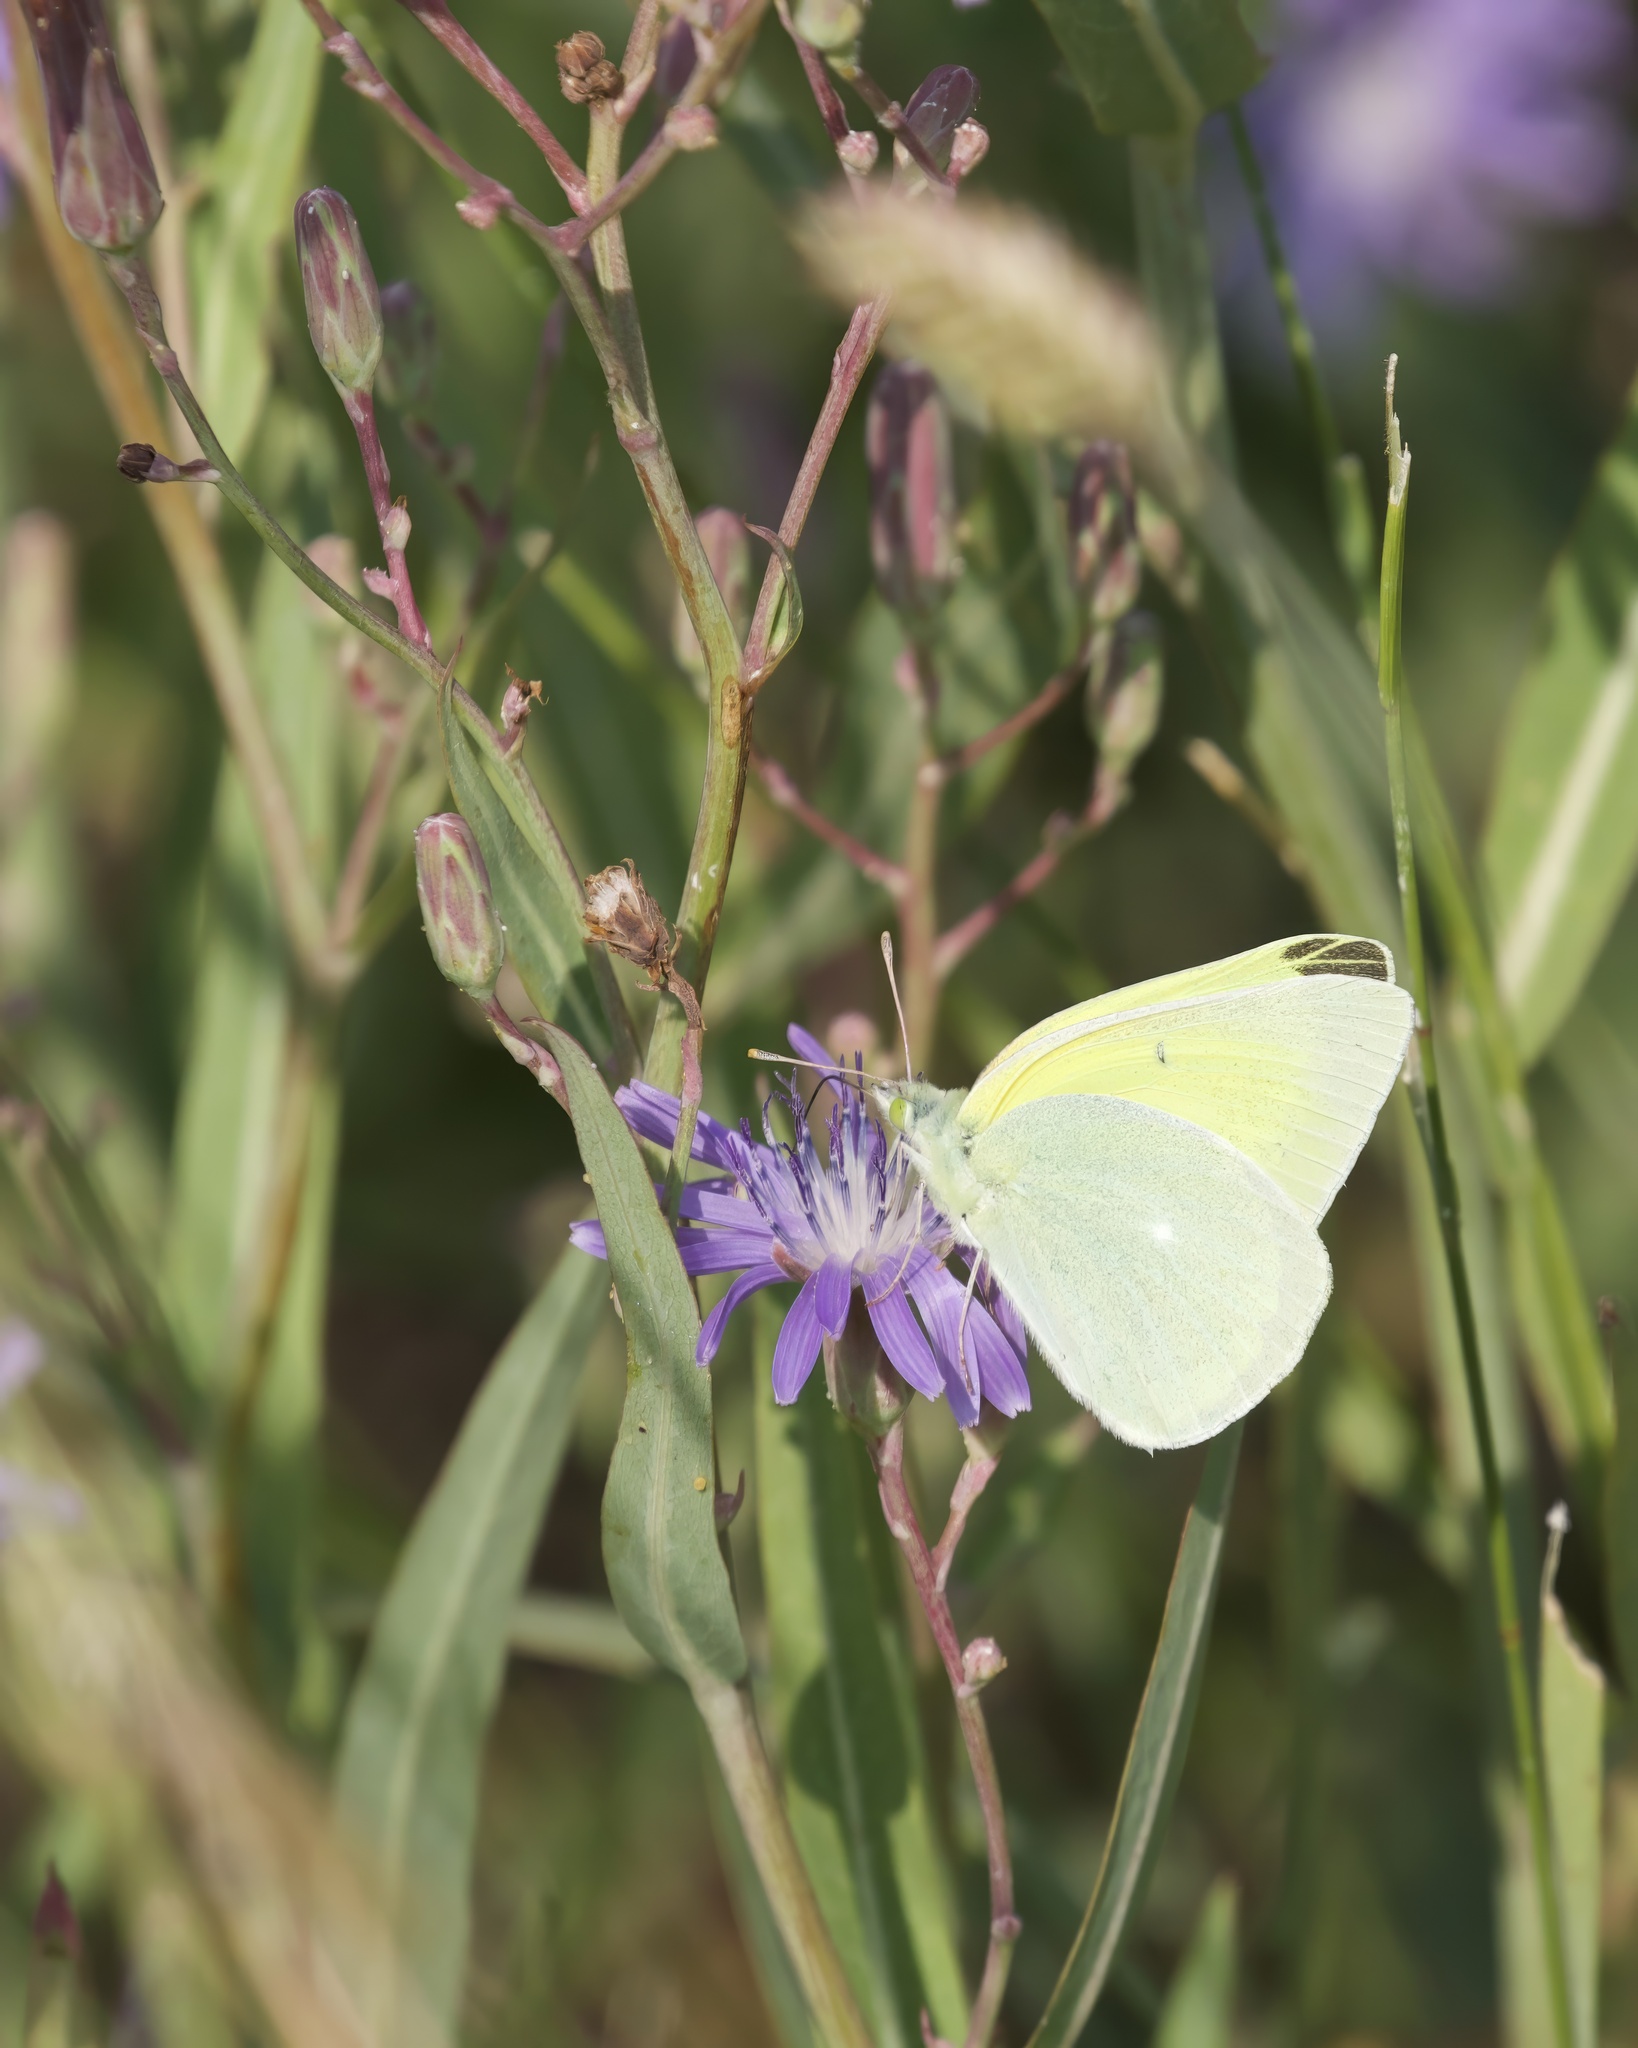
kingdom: Animalia
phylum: Arthropoda
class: Insecta
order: Lepidoptera
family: Pieridae
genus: Colias
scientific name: Colias alexandra
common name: Alexandra sulphur
